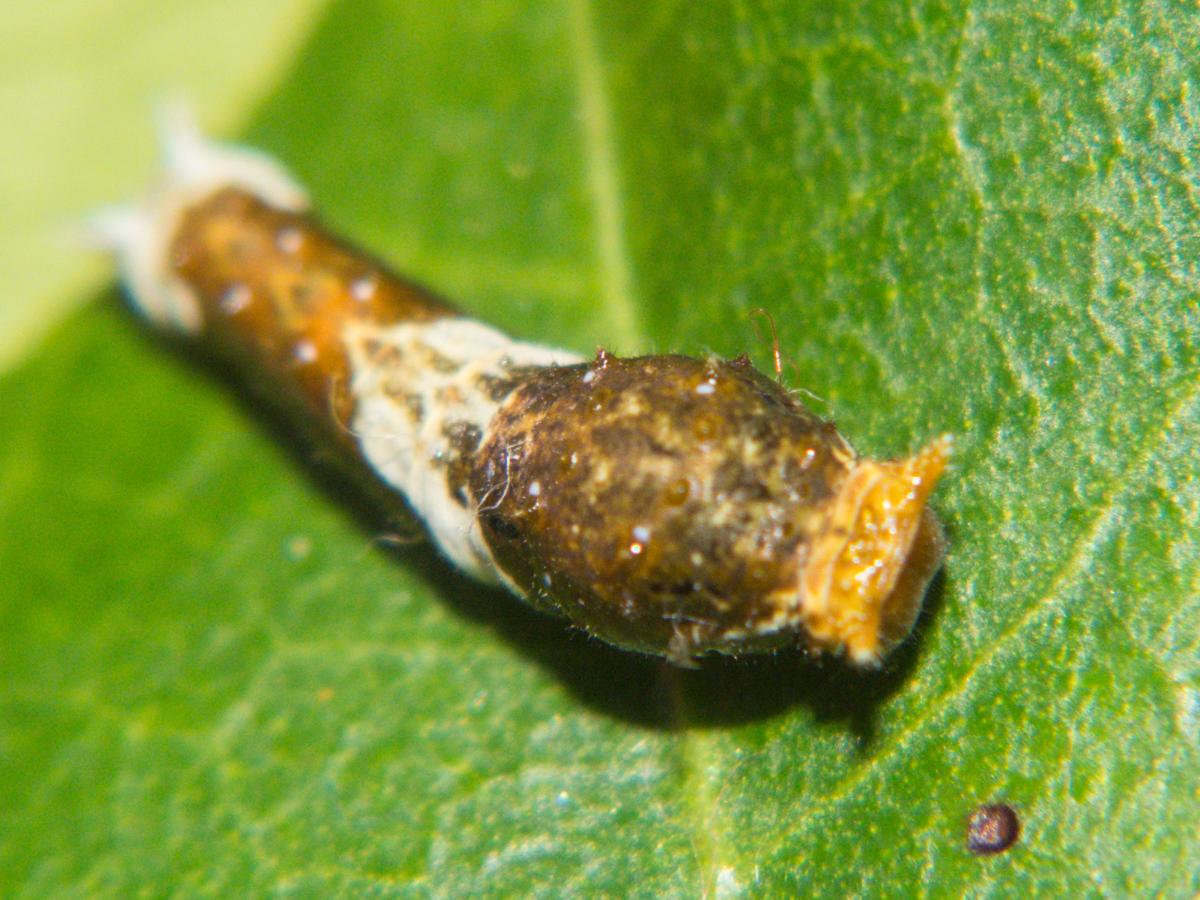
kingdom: Animalia
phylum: Arthropoda
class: Insecta
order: Lepidoptera
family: Papilionidae
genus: Papilio
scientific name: Papilio polytes
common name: Common mormon
